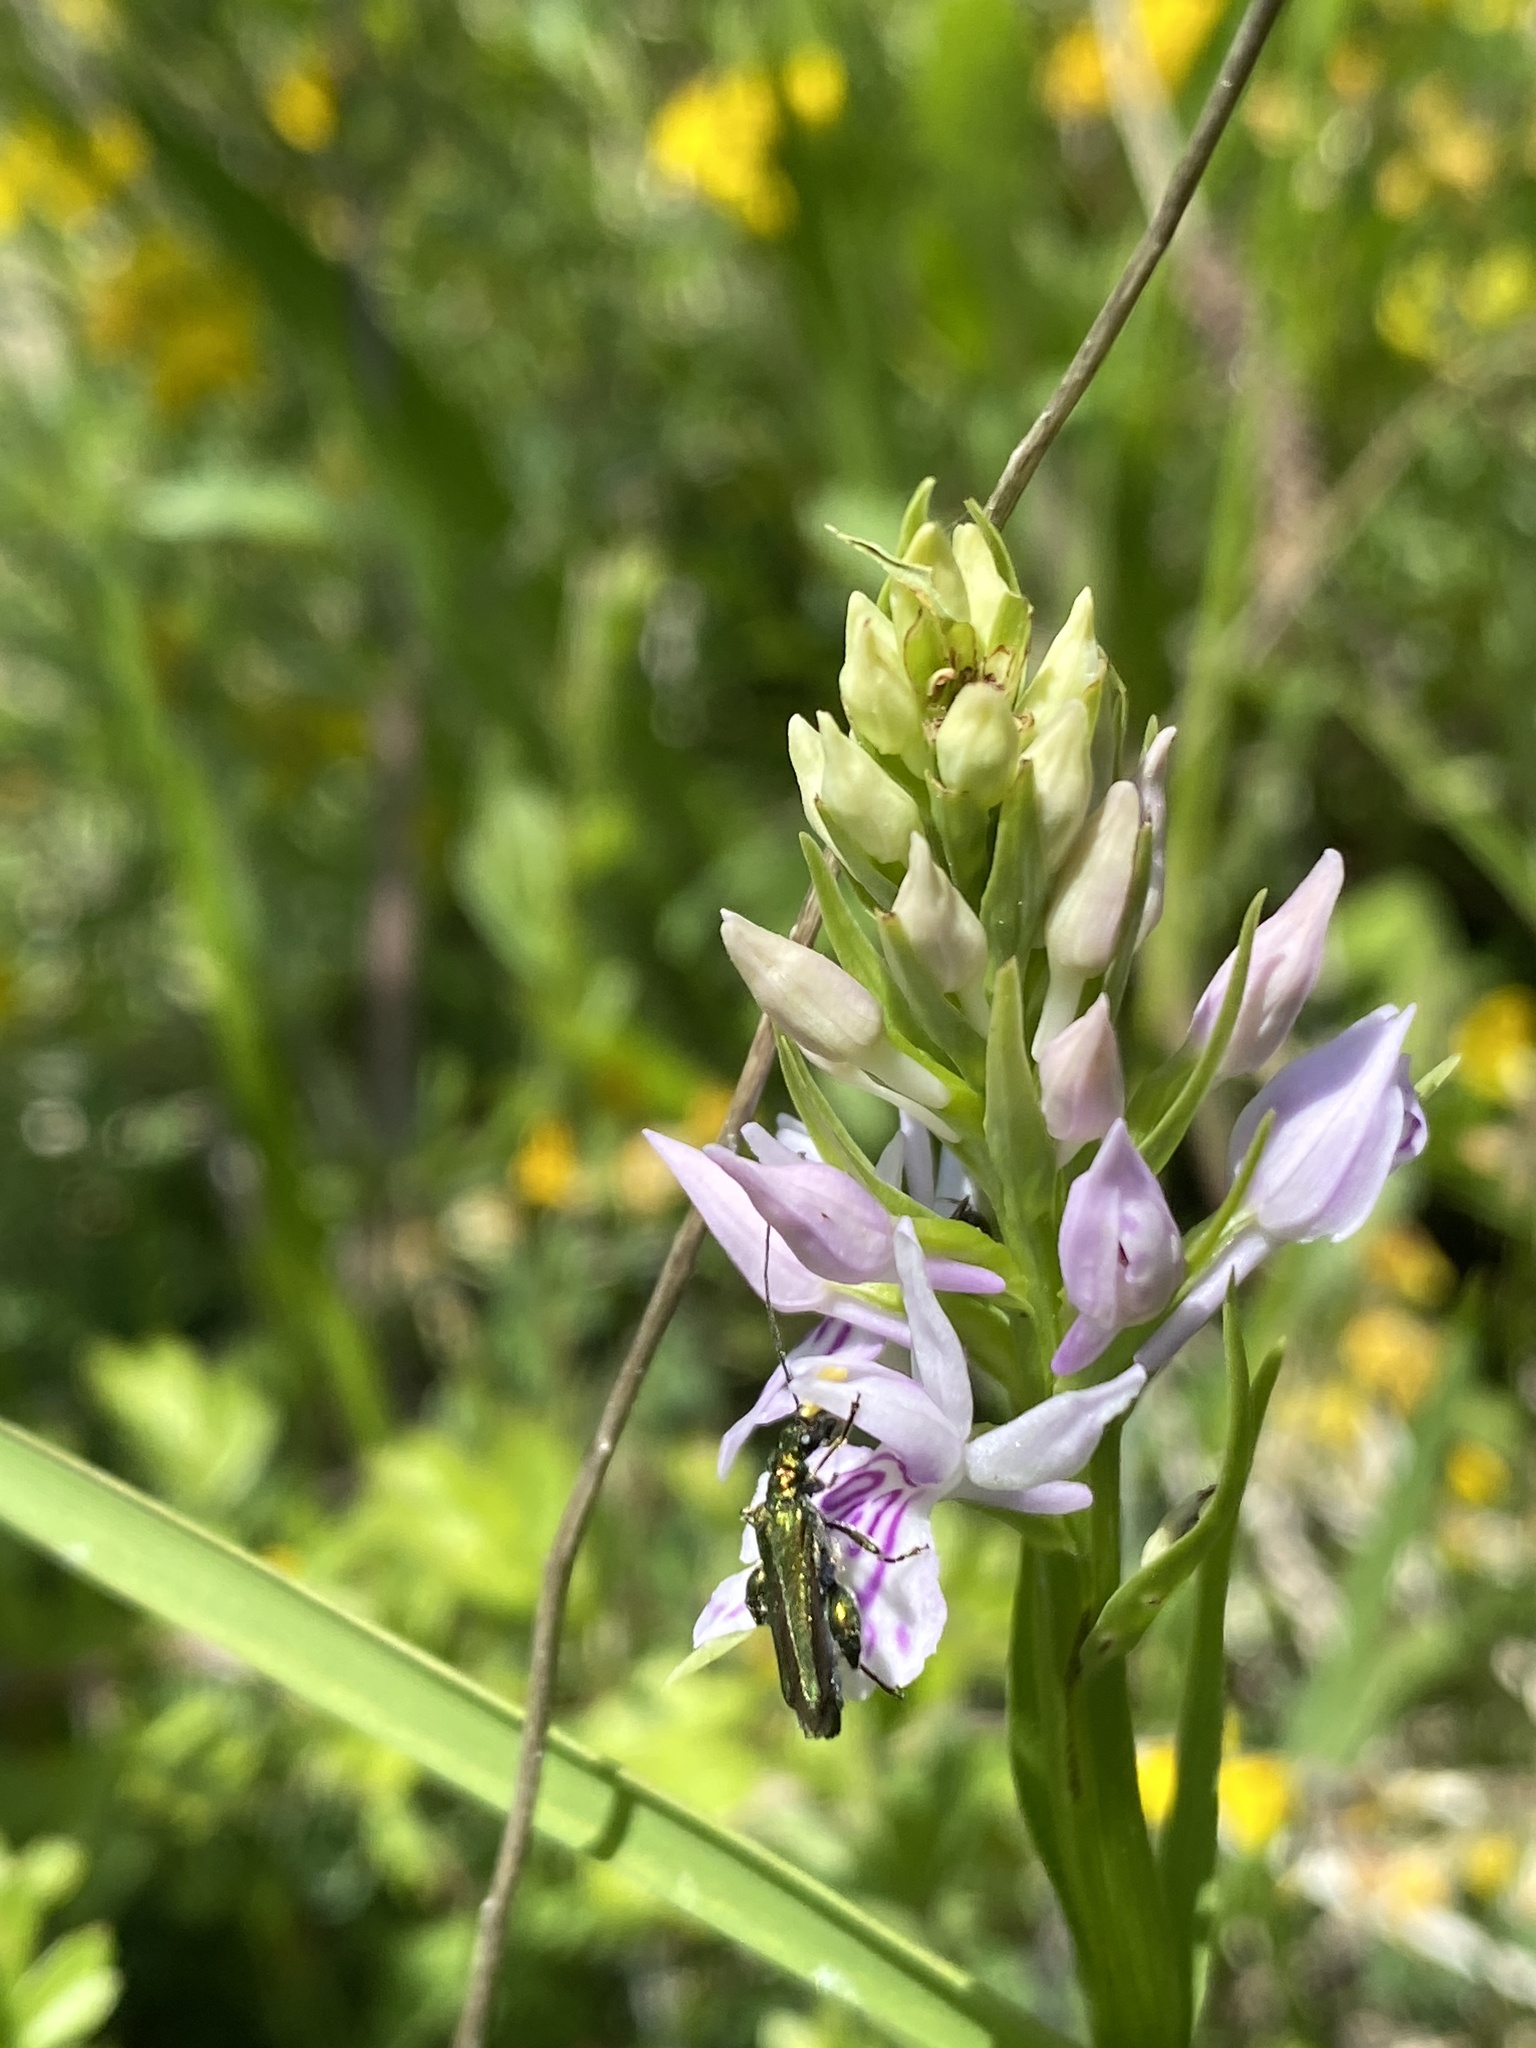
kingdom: Animalia
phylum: Arthropoda
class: Insecta
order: Coleoptera
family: Oedemeridae
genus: Oedemera
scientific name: Oedemera nobilis
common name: Swollen-thighed beetle
